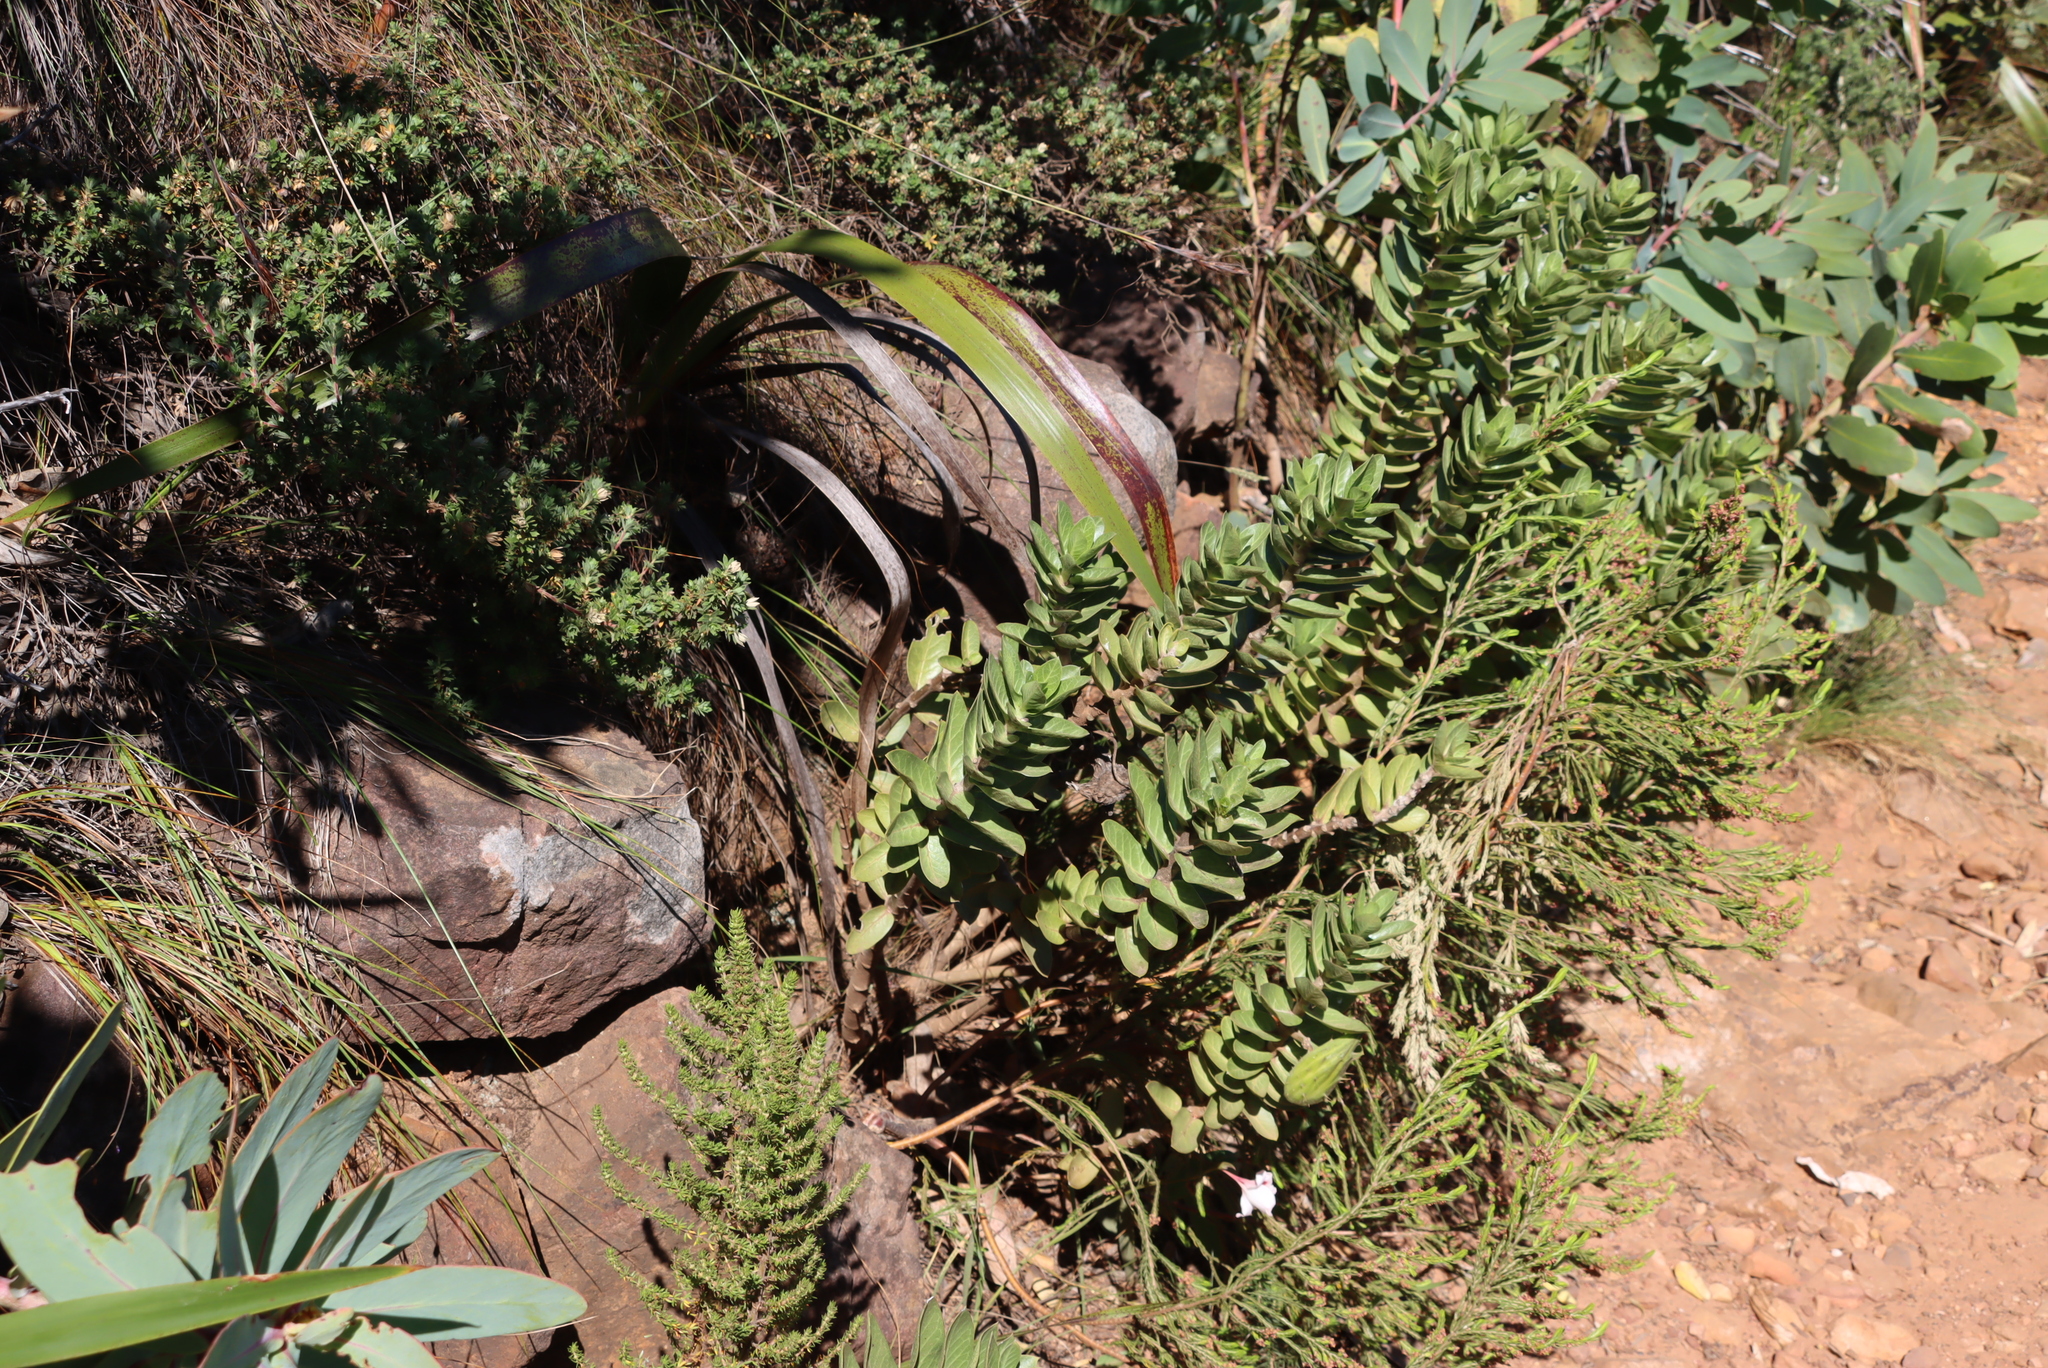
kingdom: Plantae
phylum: Tracheophyta
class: Magnoliopsida
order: Gentianales
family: Apocynaceae
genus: Gomphocarpus
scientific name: Gomphocarpus cancellatus
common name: Wild cotton
